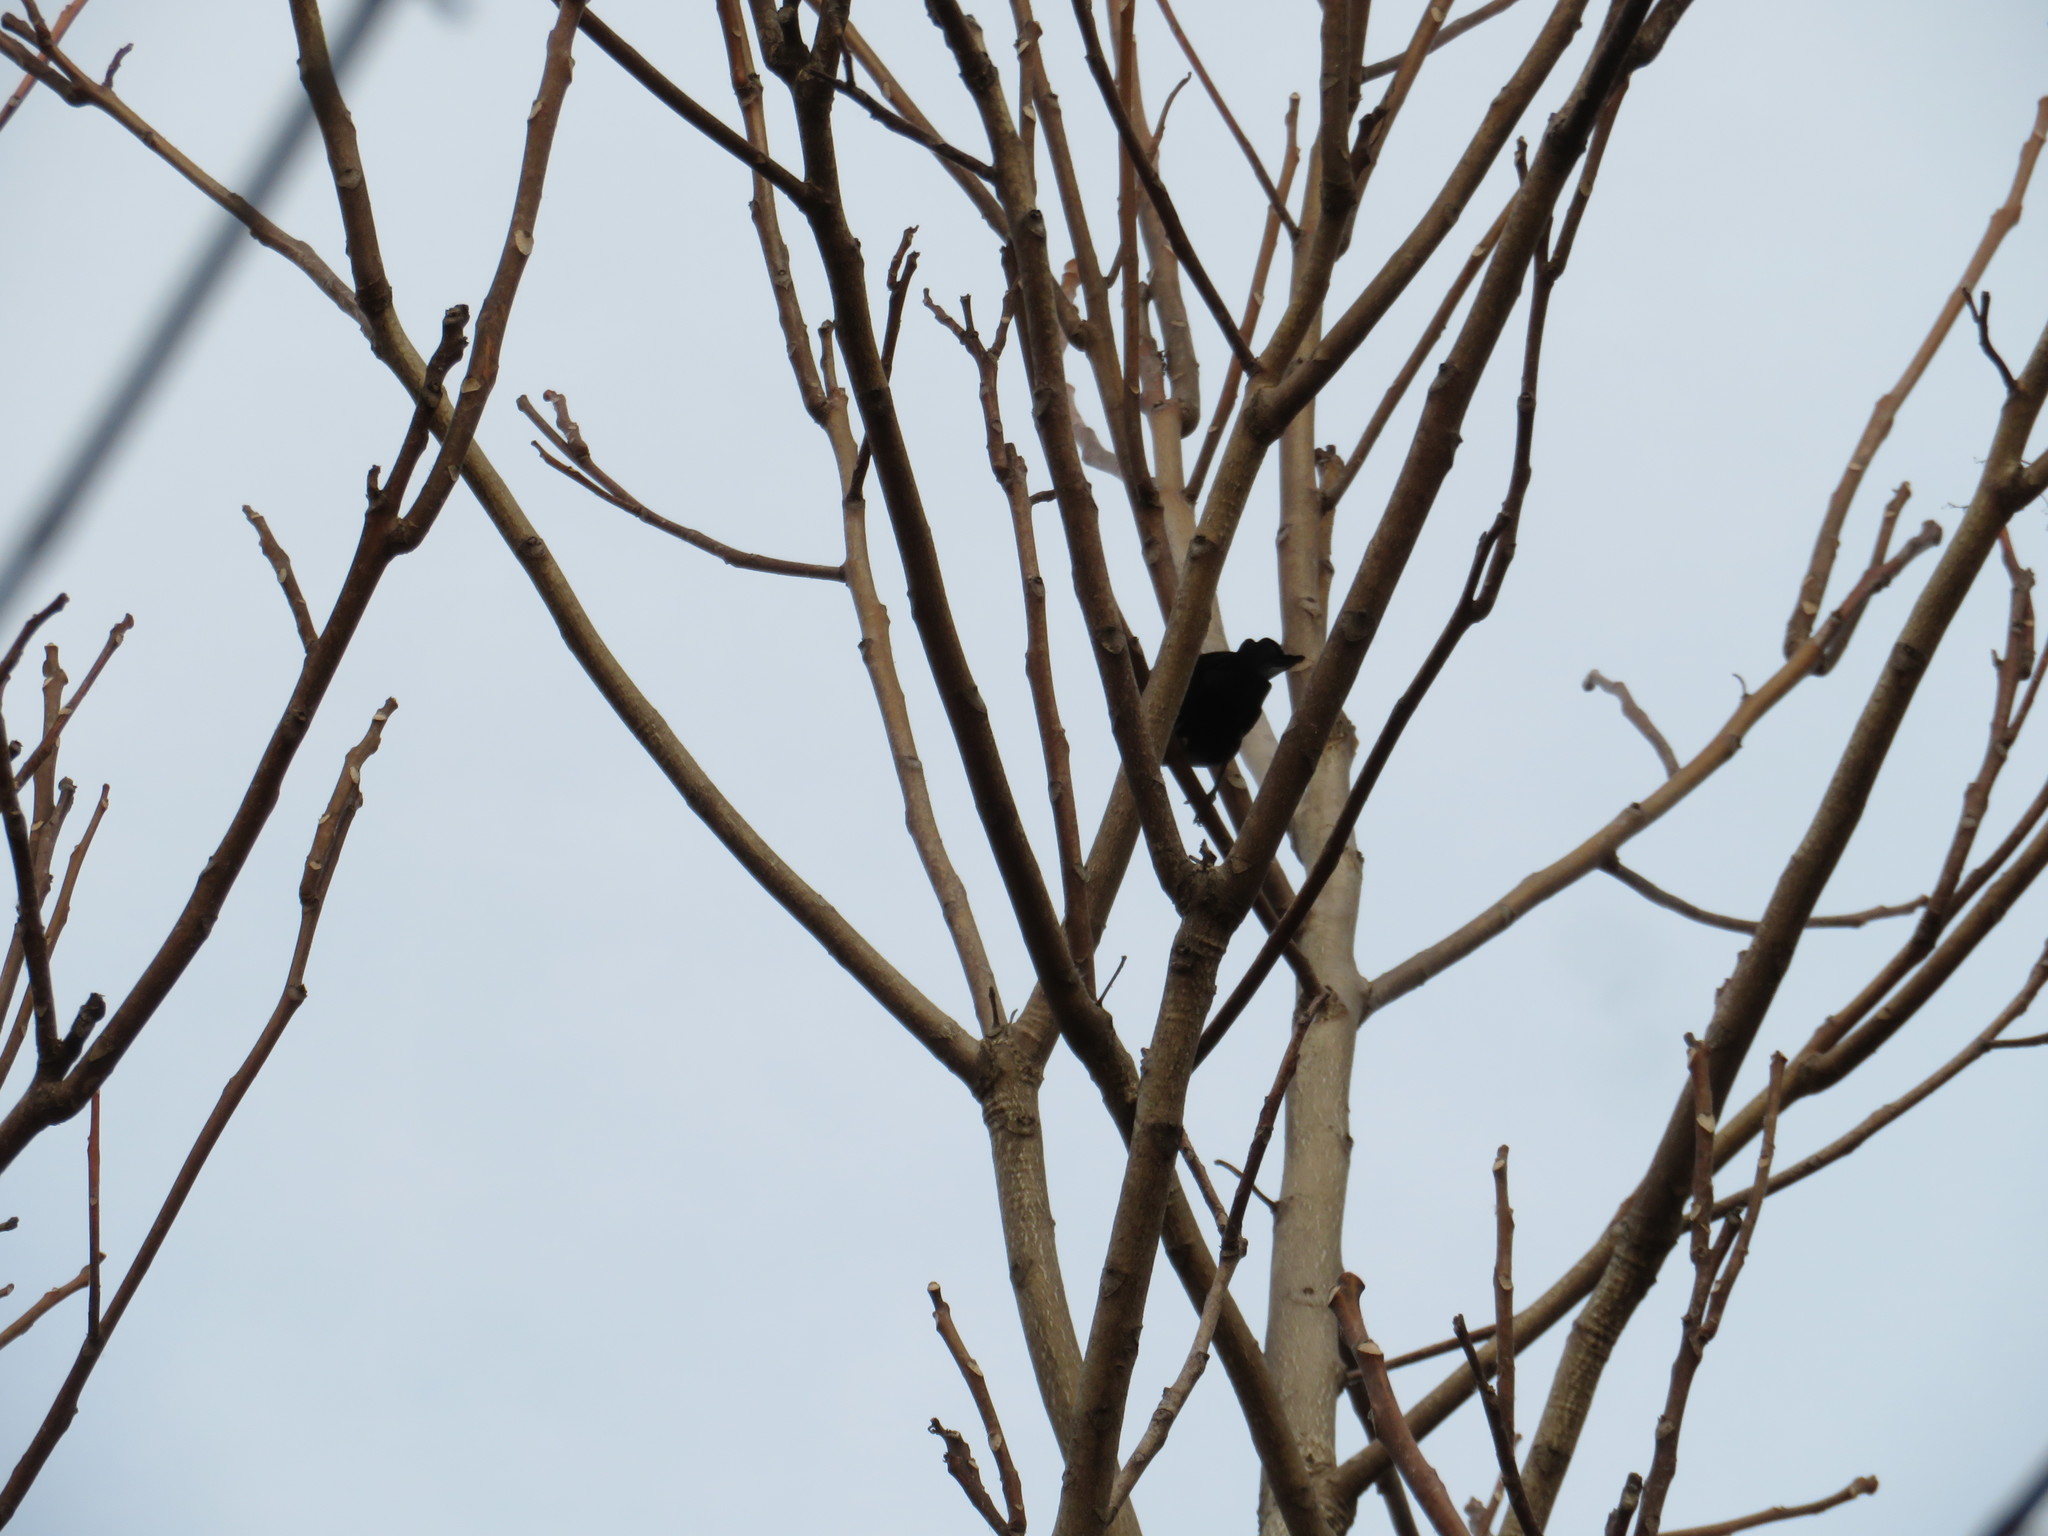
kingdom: Animalia
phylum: Chordata
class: Aves
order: Passeriformes
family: Icteridae
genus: Agelaius
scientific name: Agelaius phoeniceus
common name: Red-winged blackbird
